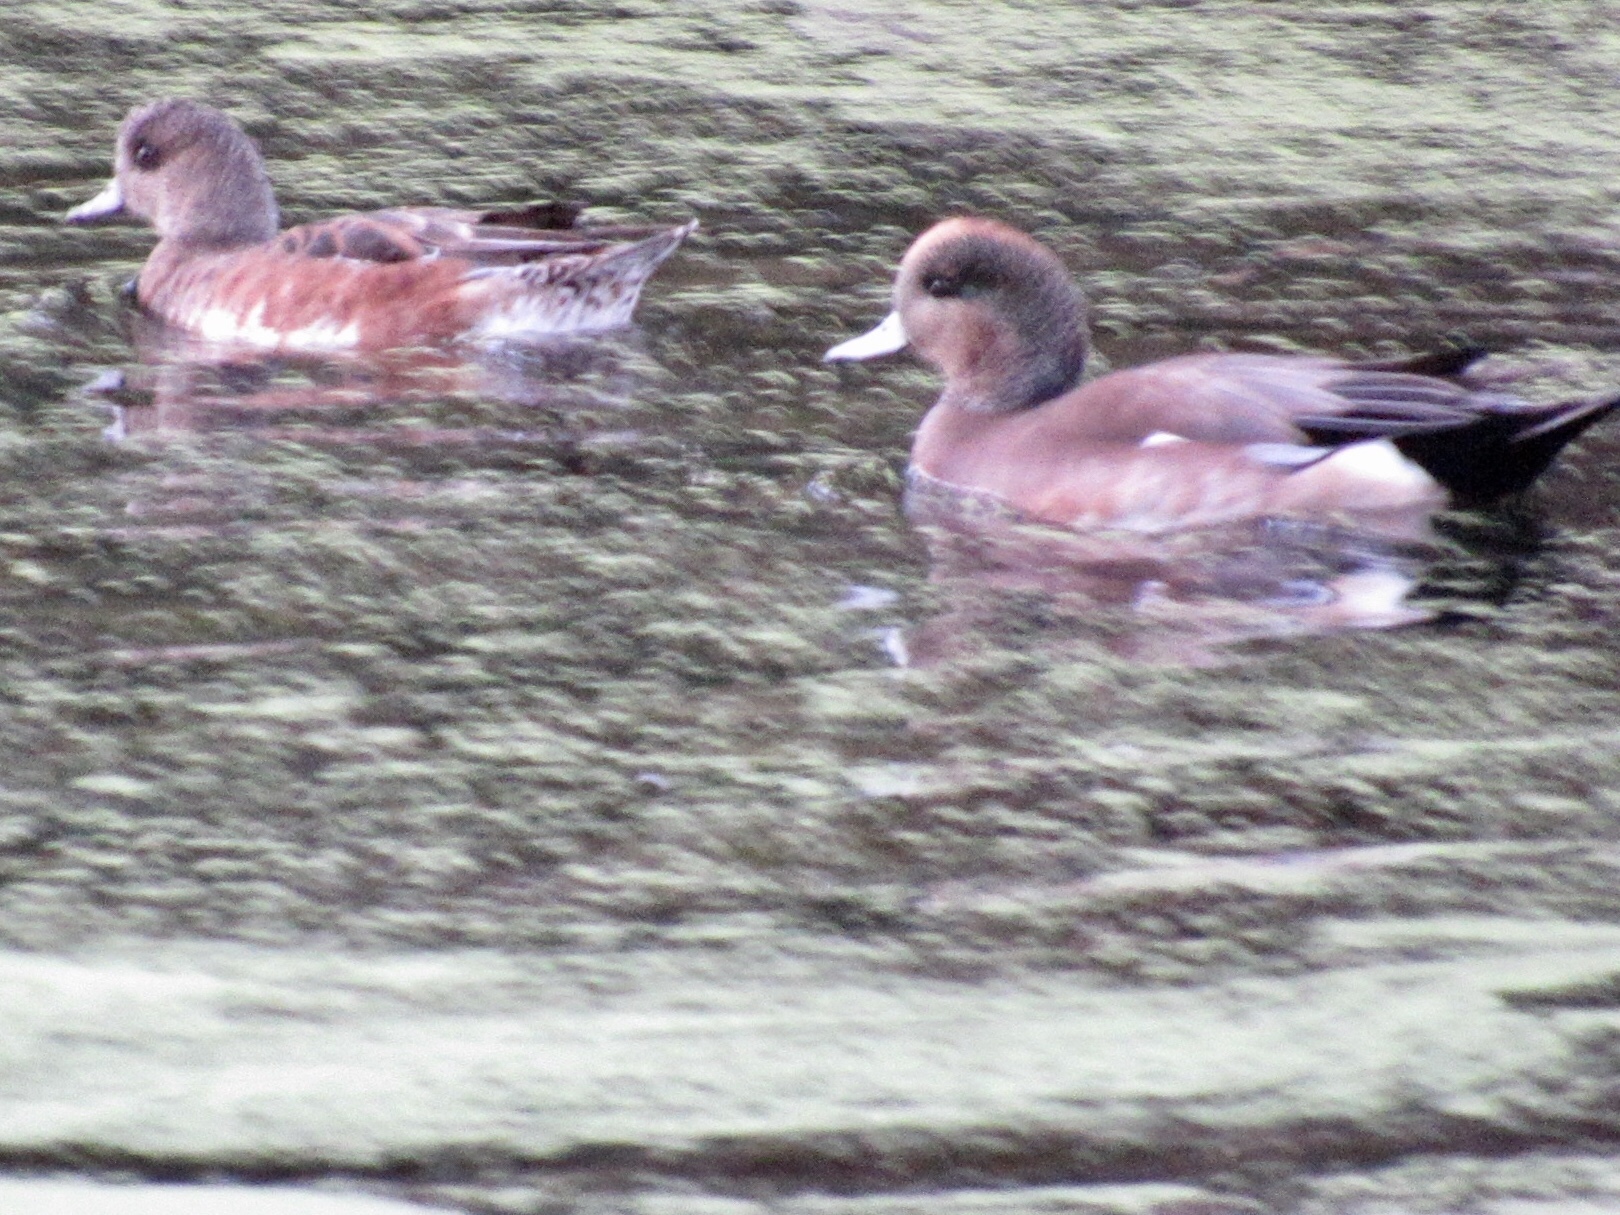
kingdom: Animalia
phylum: Chordata
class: Aves
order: Anseriformes
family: Anatidae
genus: Mareca
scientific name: Mareca americana
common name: American wigeon
